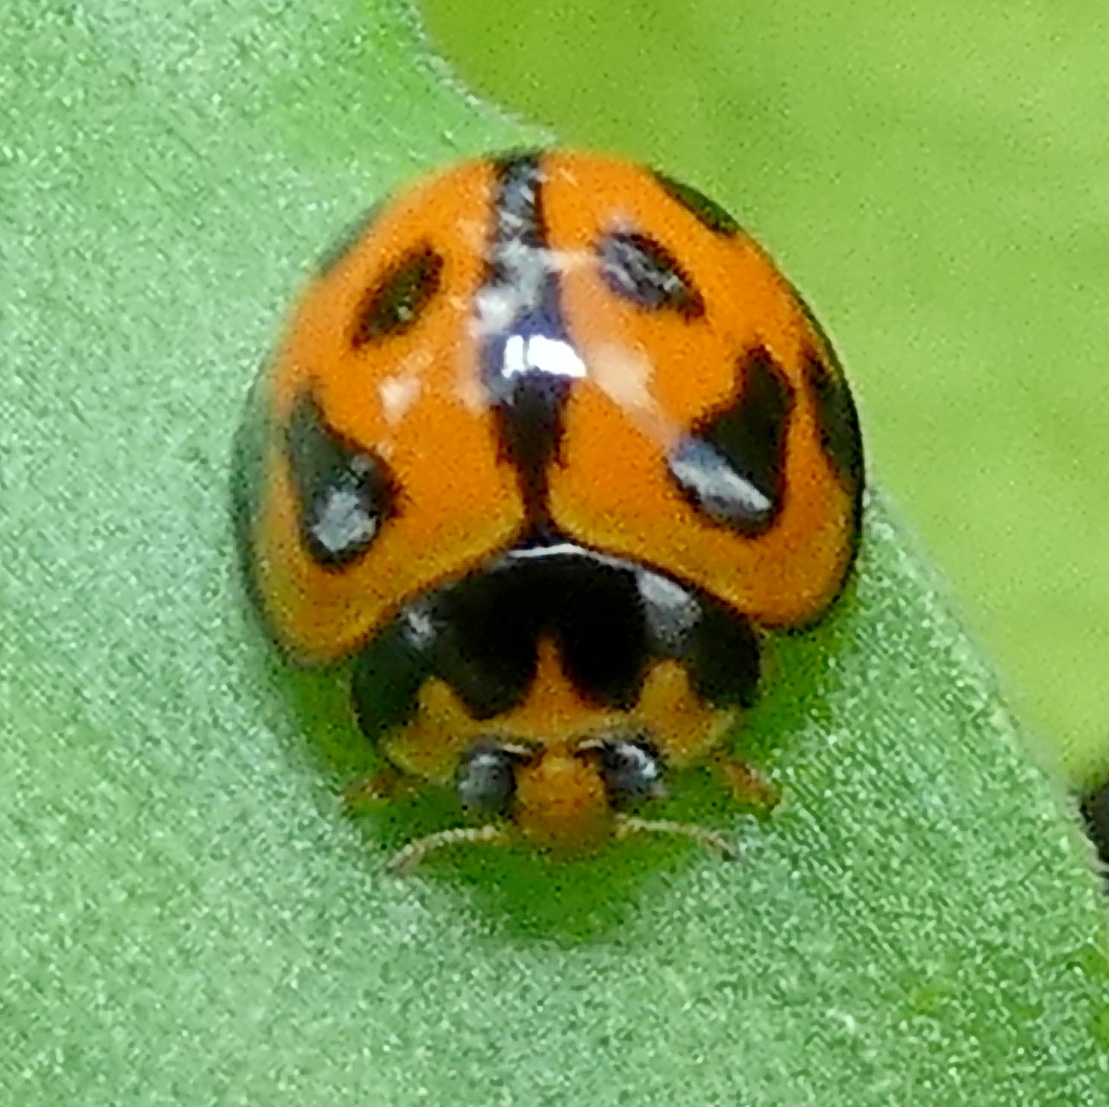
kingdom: Animalia
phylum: Arthropoda
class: Insecta
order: Coleoptera
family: Coccinellidae
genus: Coelophora
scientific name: Coelophora inaequalis
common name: Common australian lady beetle
